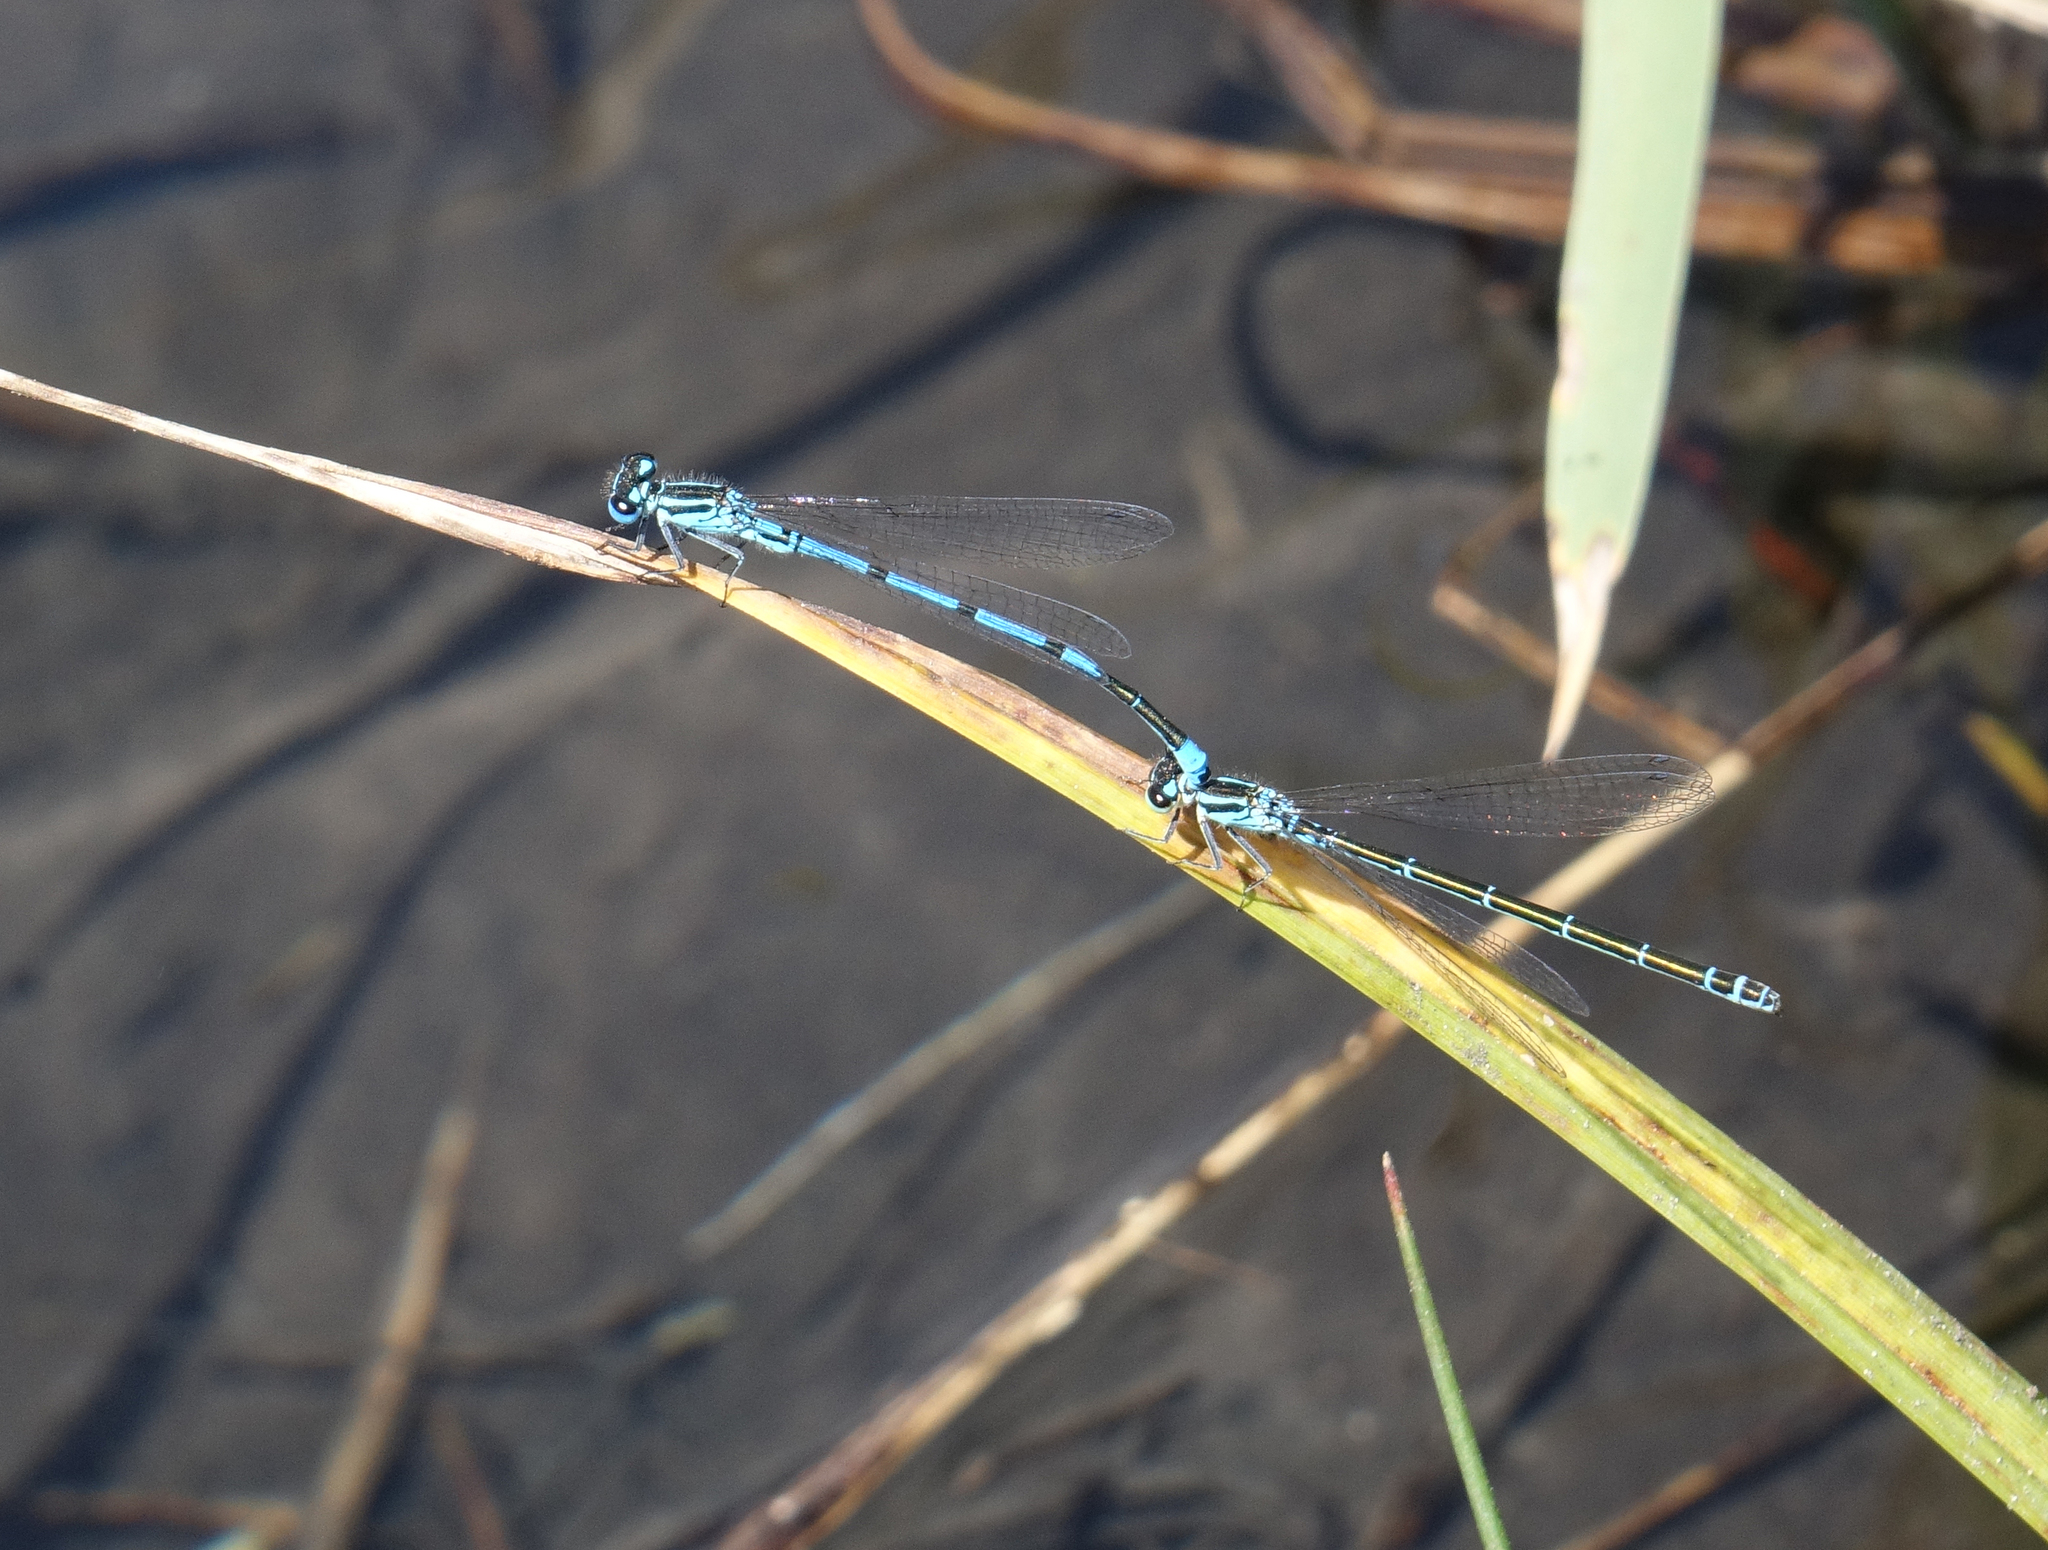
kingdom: Animalia
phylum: Arthropoda
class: Insecta
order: Odonata
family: Coenagrionidae
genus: Coenagrion
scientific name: Coenagrion puella
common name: Azure damselfly
